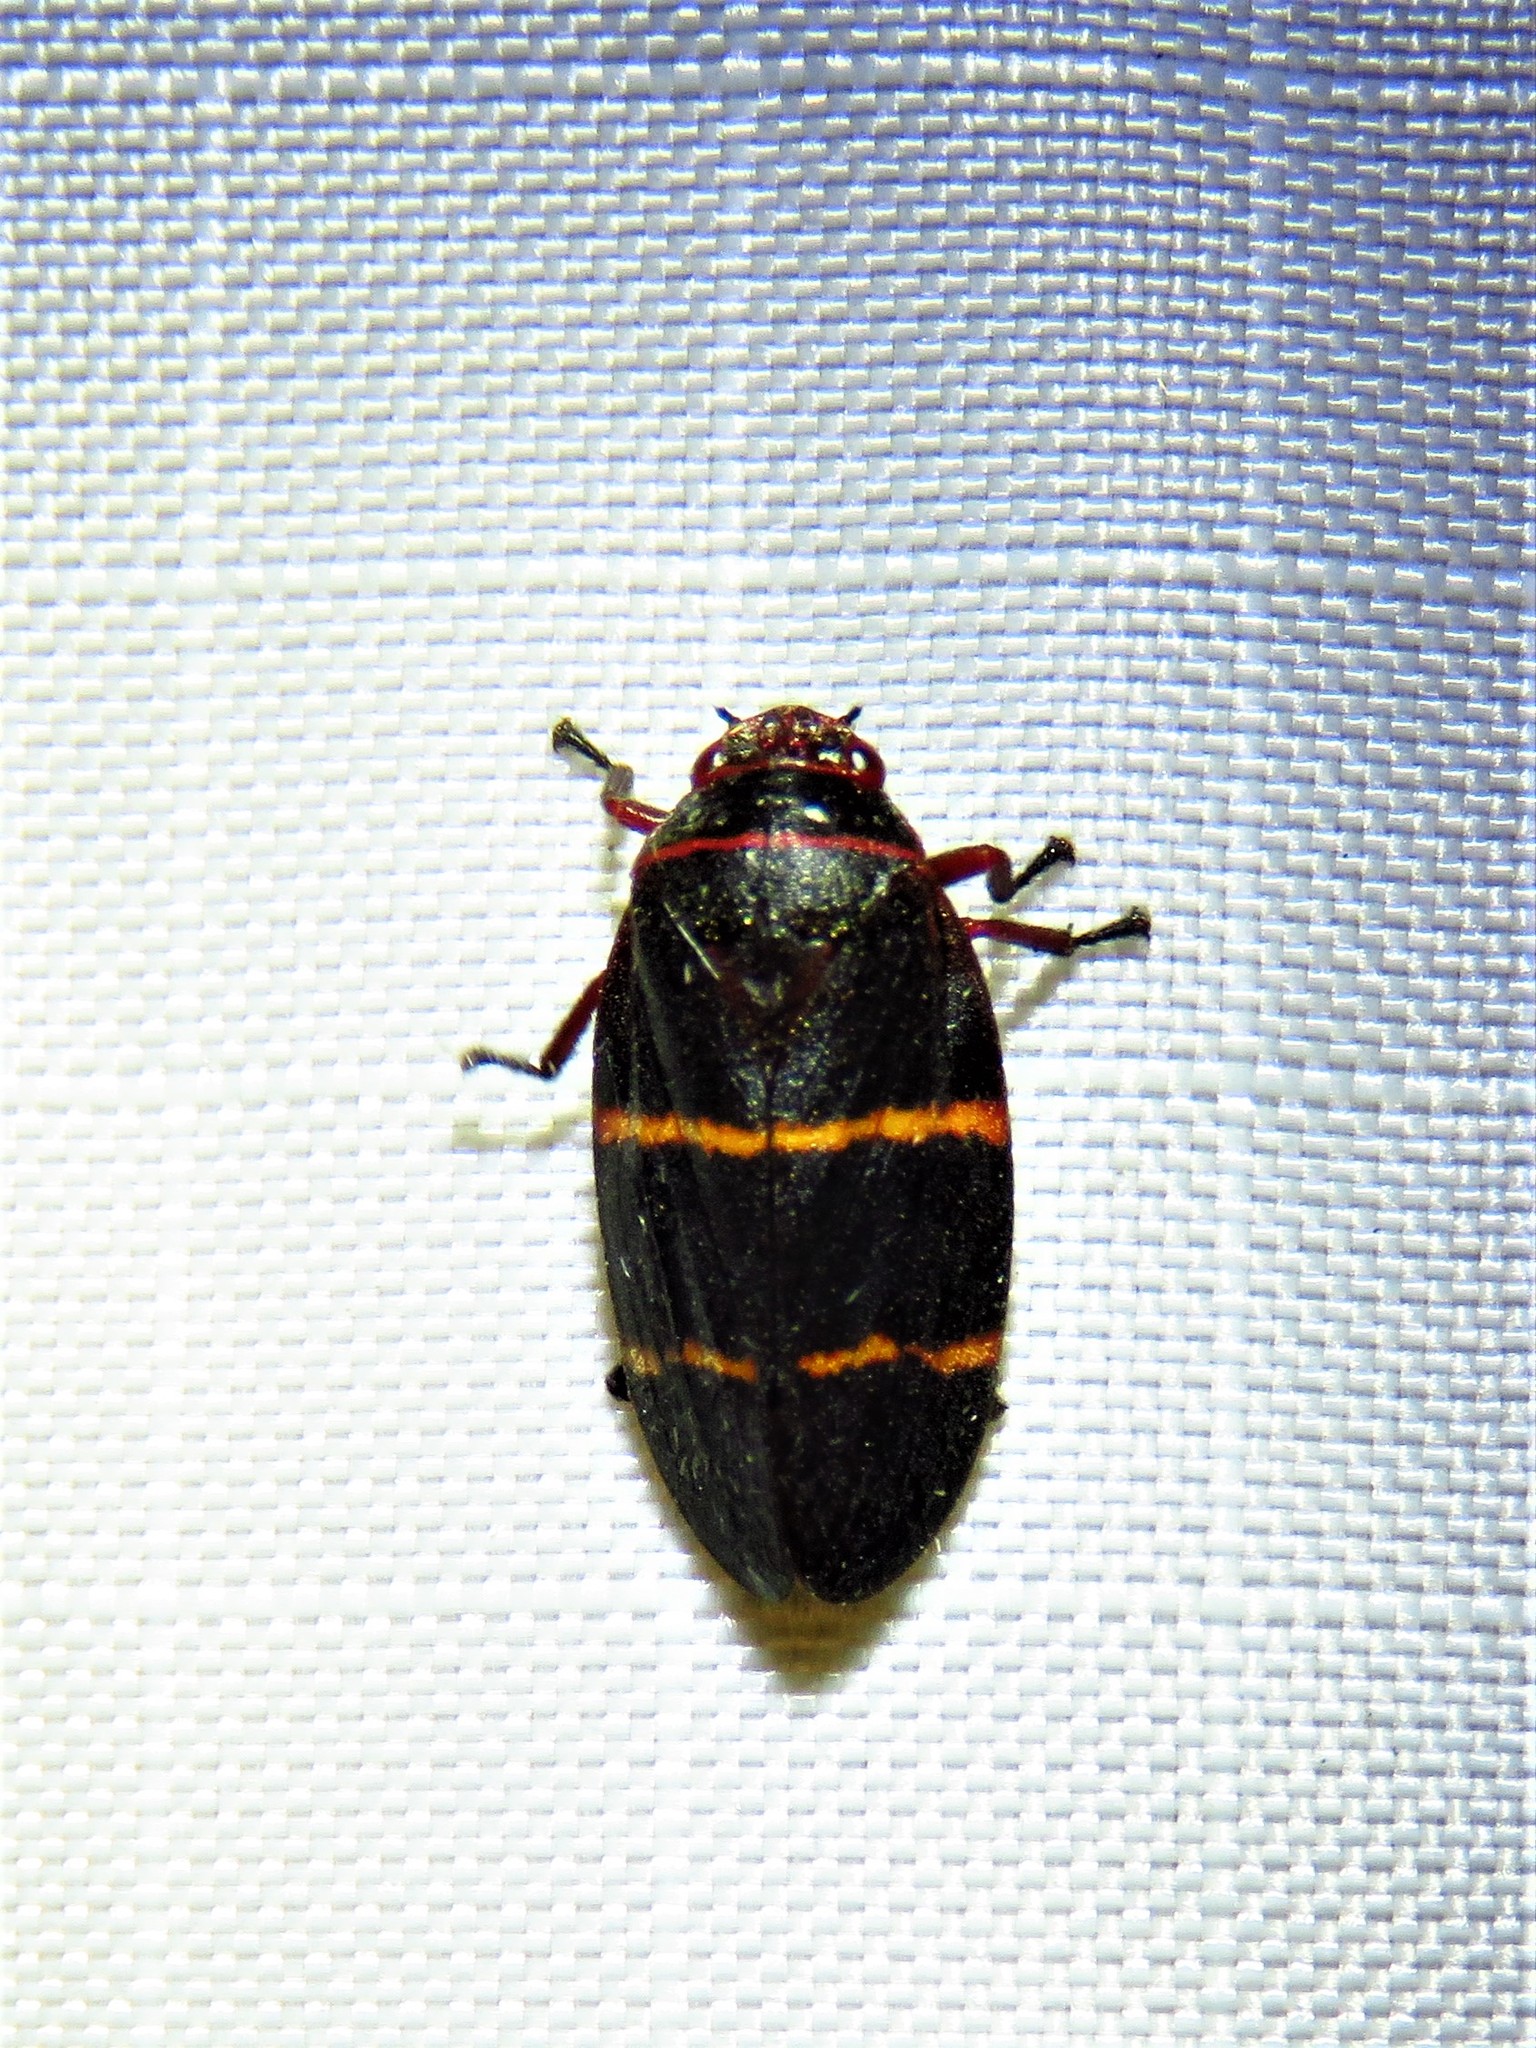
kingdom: Animalia
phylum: Arthropoda
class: Insecta
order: Hemiptera
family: Cercopidae
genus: Prosapia
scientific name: Prosapia bicincta
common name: Twolined spittlebug
